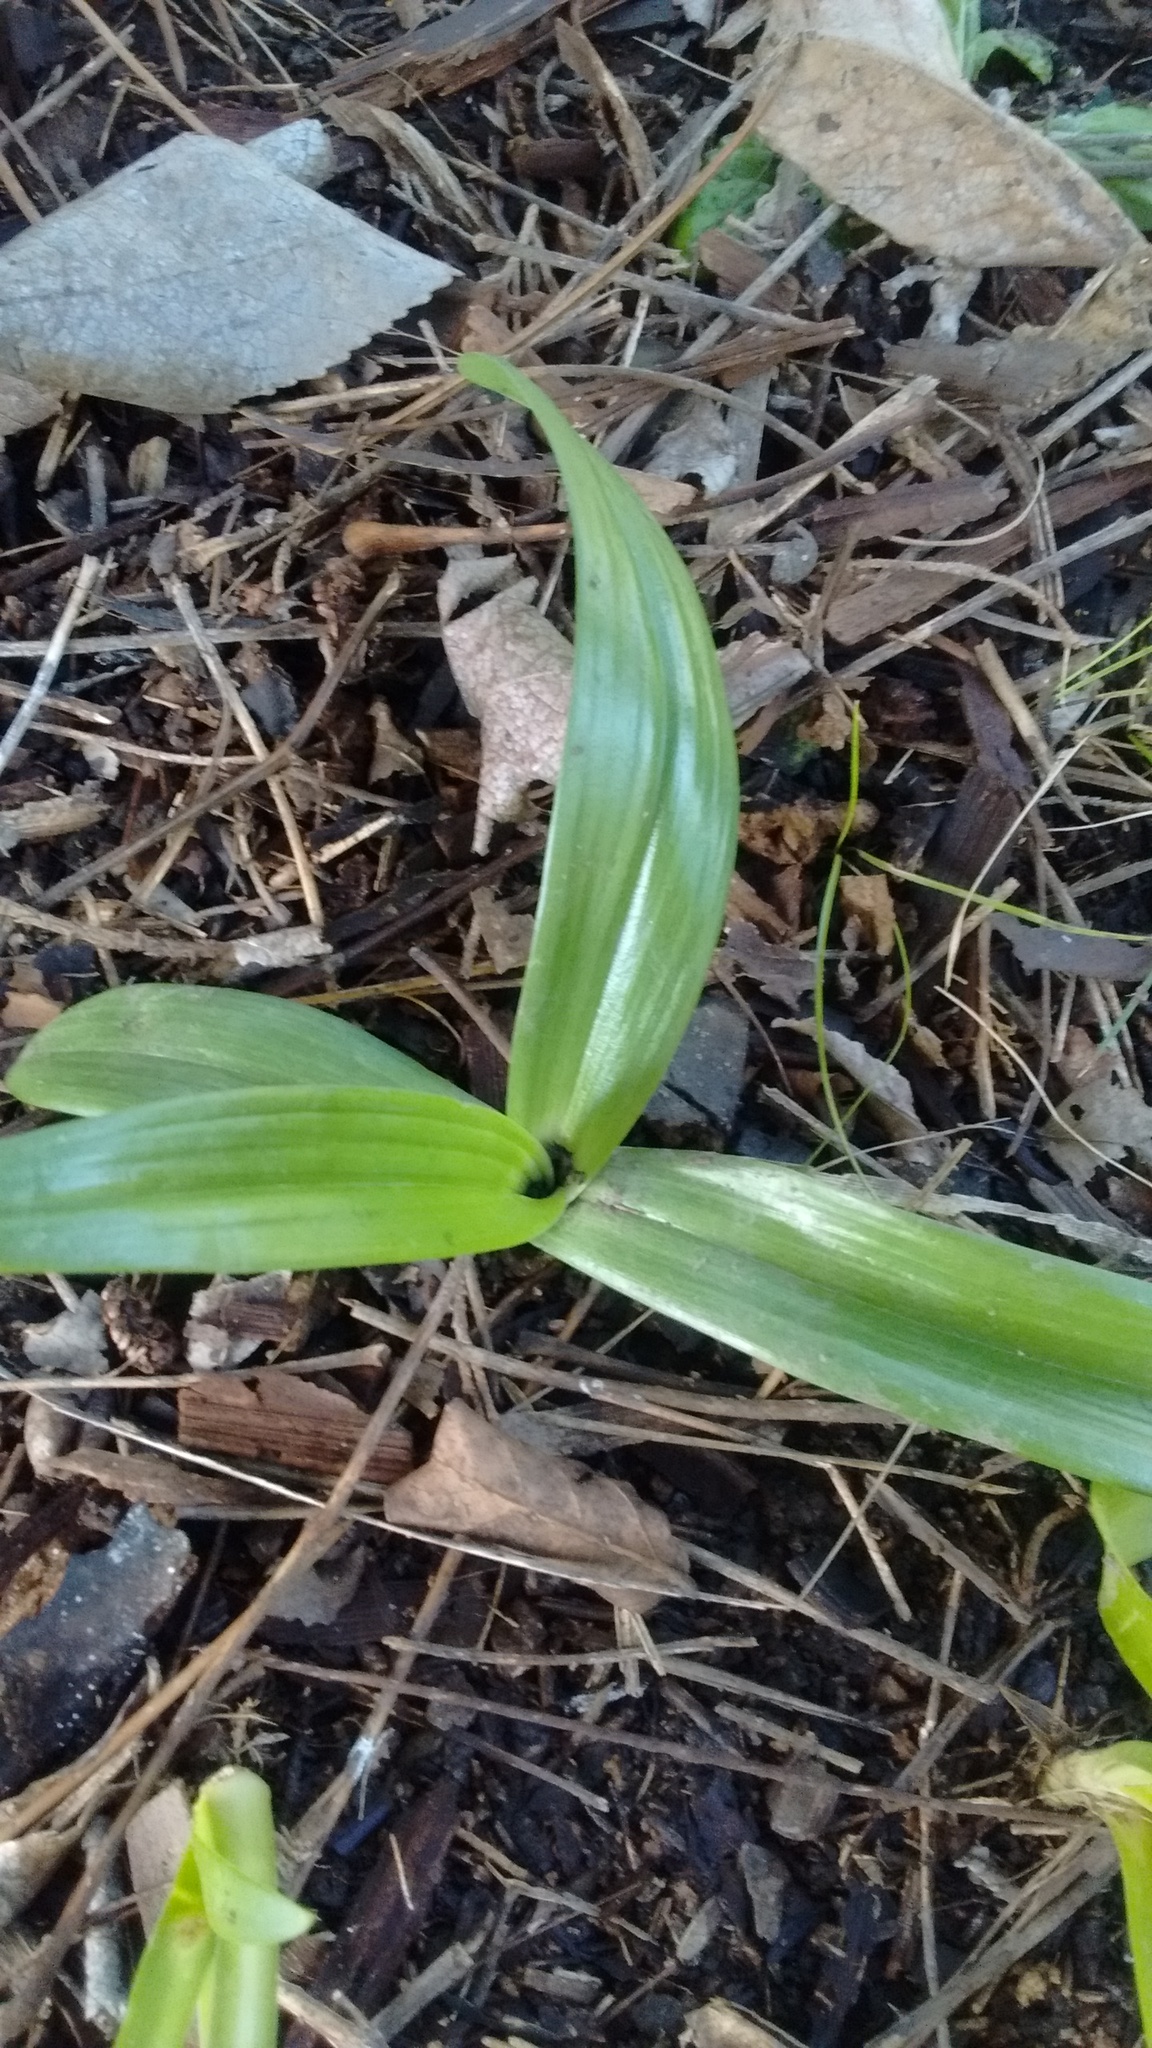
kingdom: Plantae
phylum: Tracheophyta
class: Liliopsida
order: Asparagales
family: Orchidaceae
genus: Chloraea
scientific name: Chloraea membranacea
